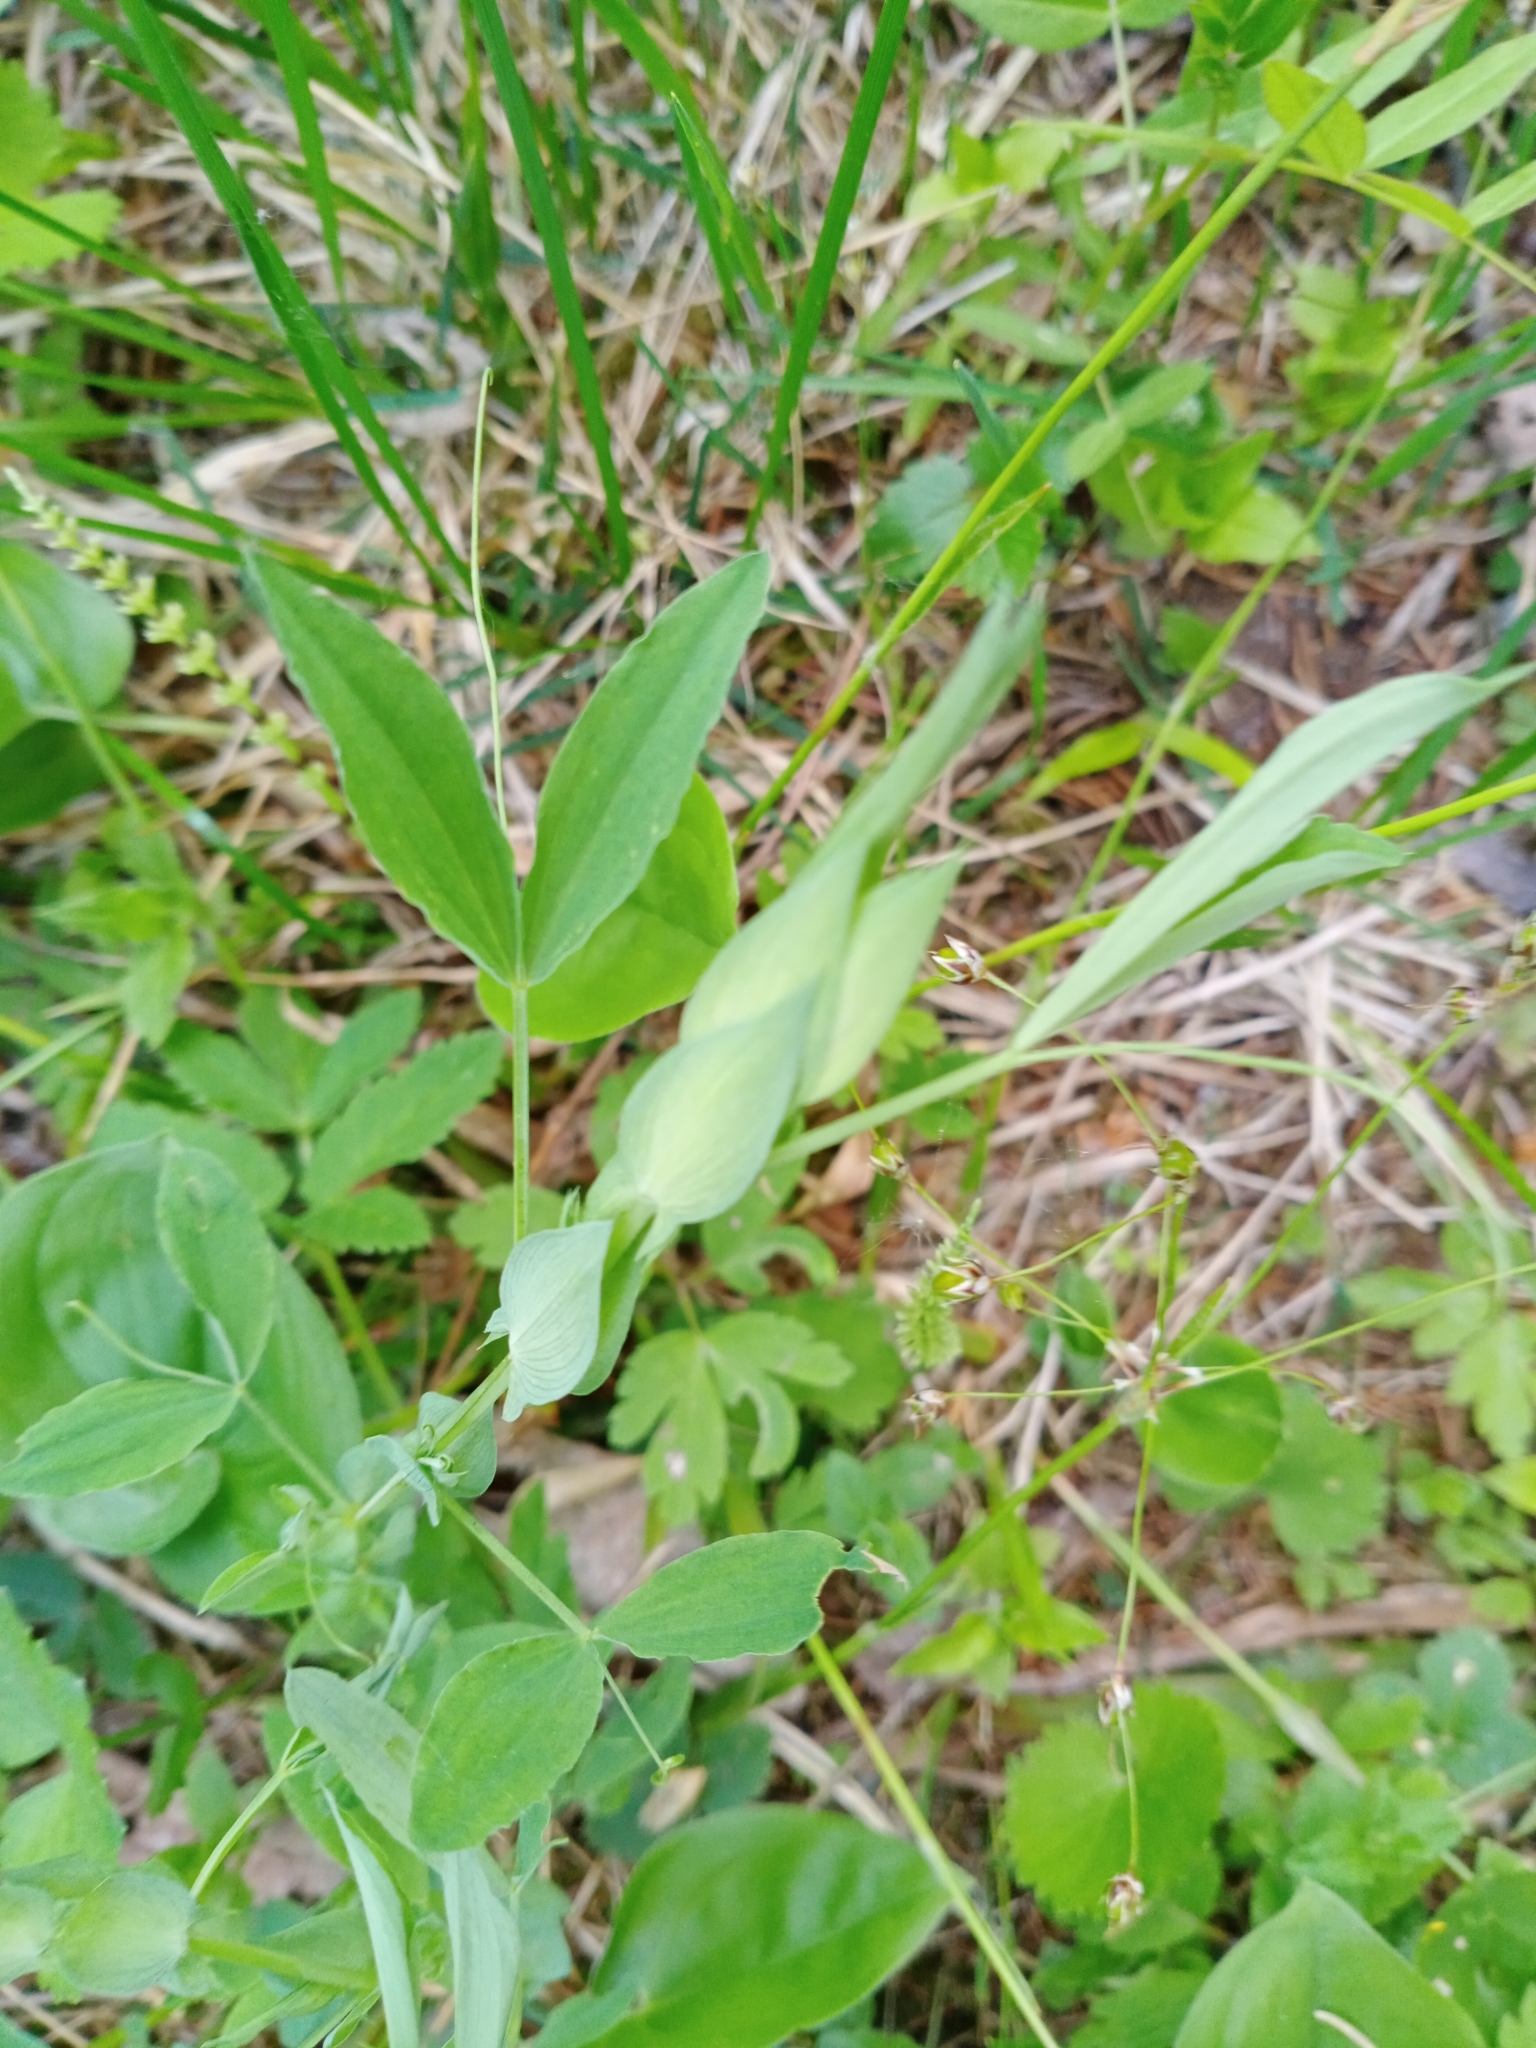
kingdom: Plantae
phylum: Tracheophyta
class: Magnoliopsida
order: Fabales
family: Fabaceae
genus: Lathyrus
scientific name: Lathyrus pratensis
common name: Meadow vetchling
